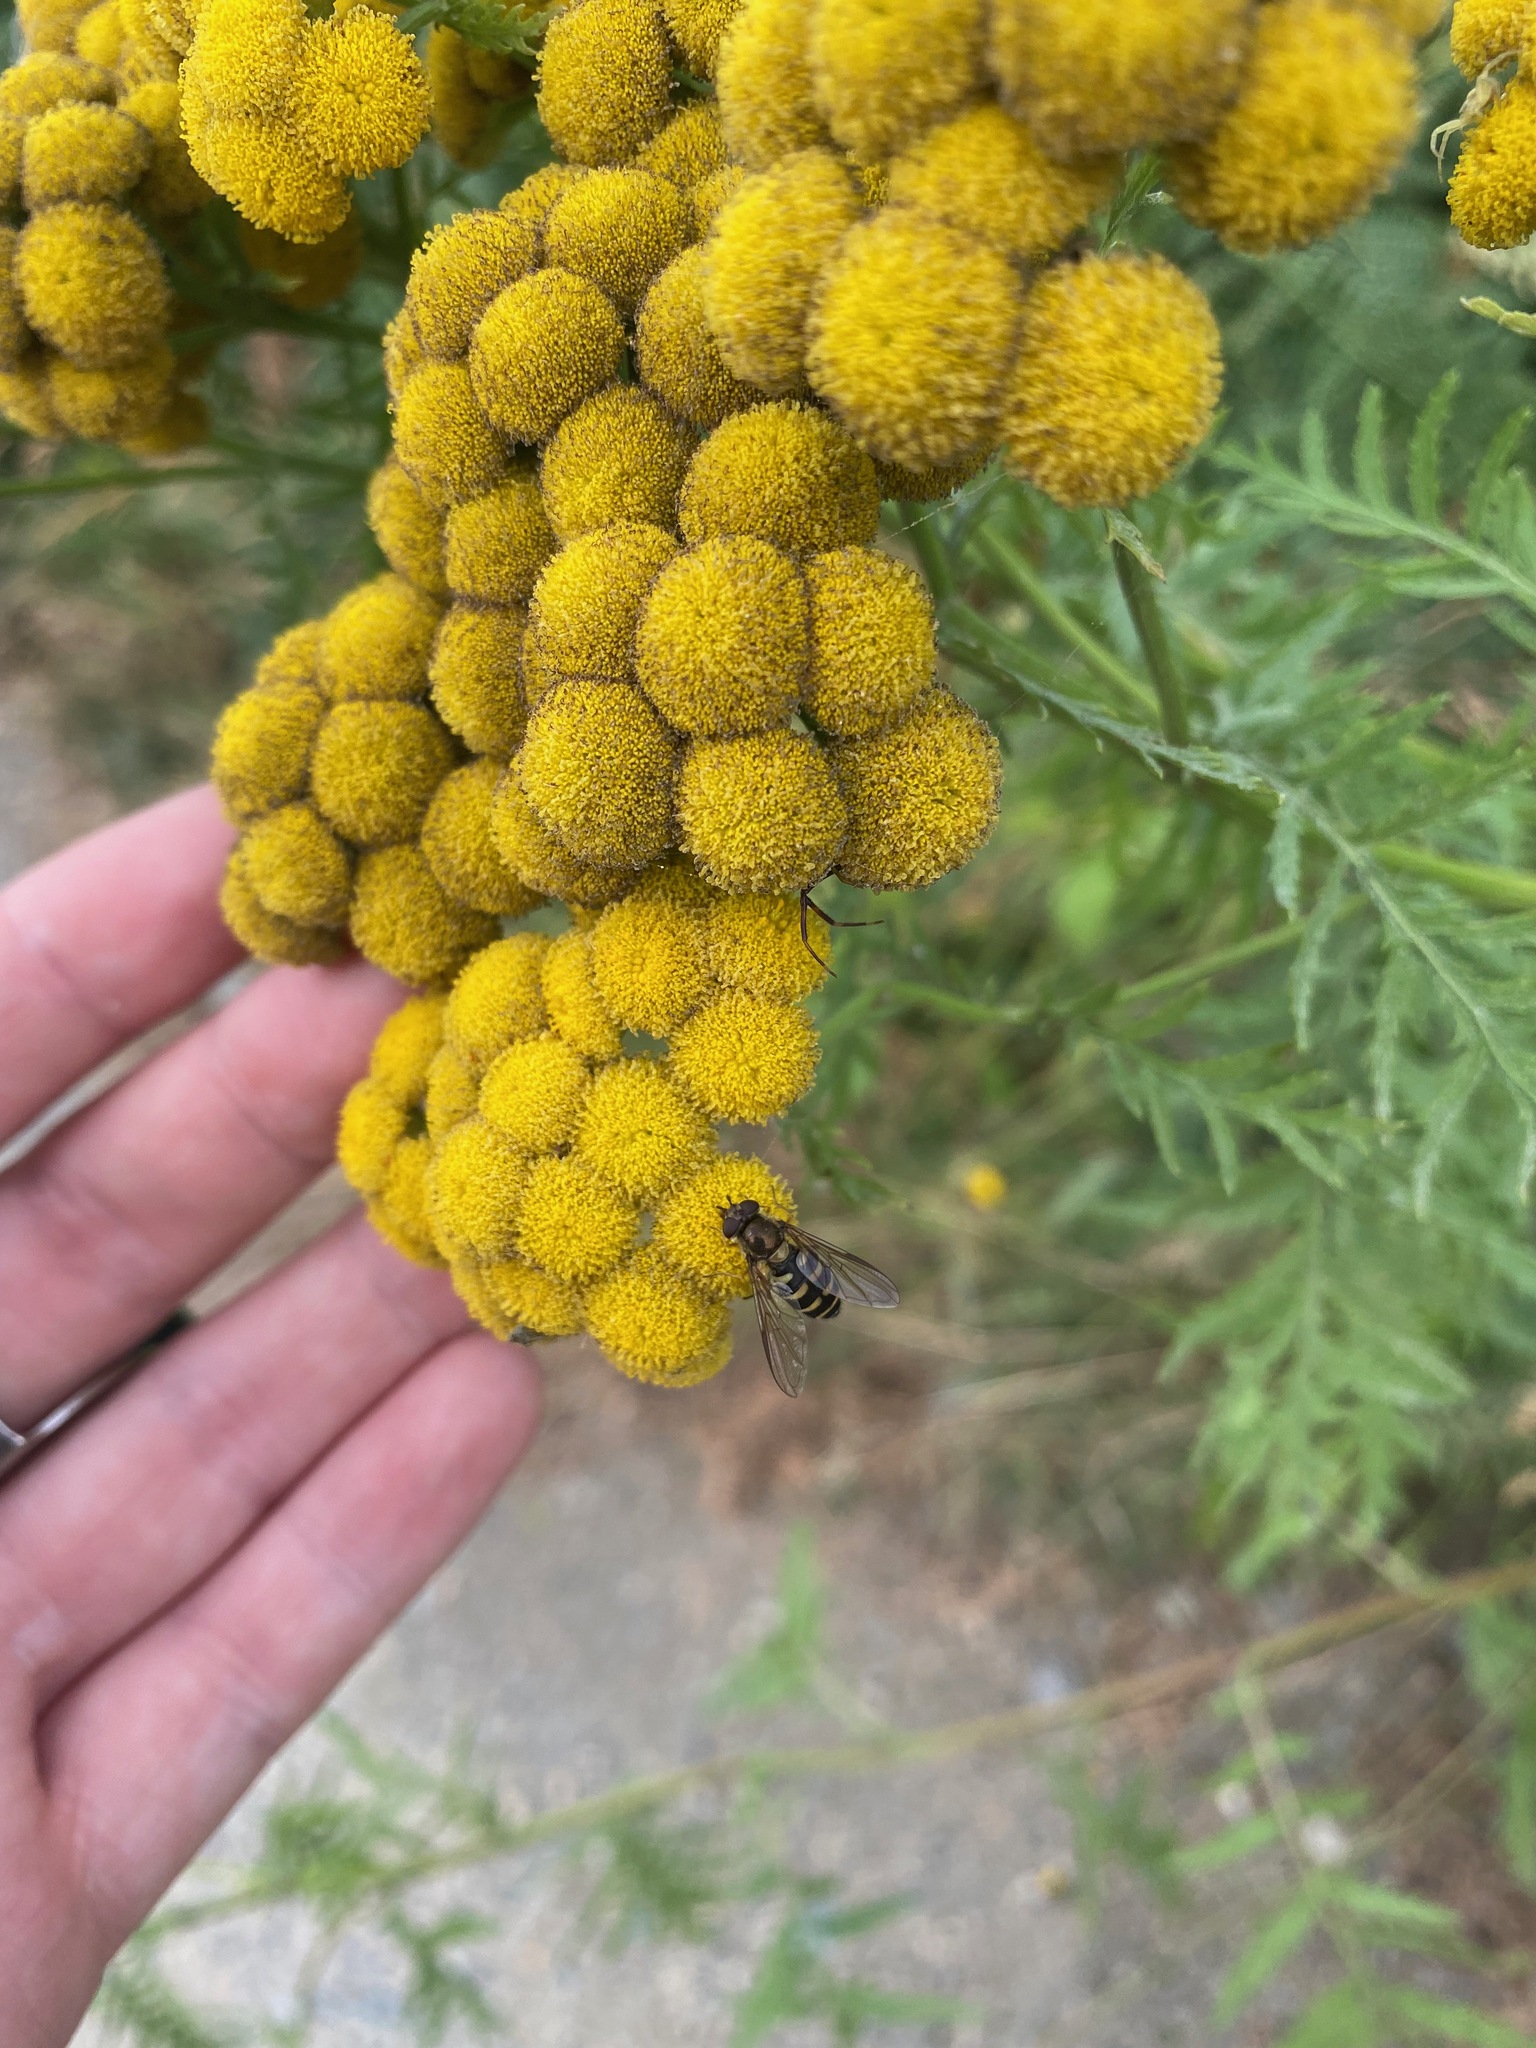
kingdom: Plantae
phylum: Tracheophyta
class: Magnoliopsida
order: Asterales
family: Asteraceae
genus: Tanacetum
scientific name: Tanacetum vulgare
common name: Common tansy
